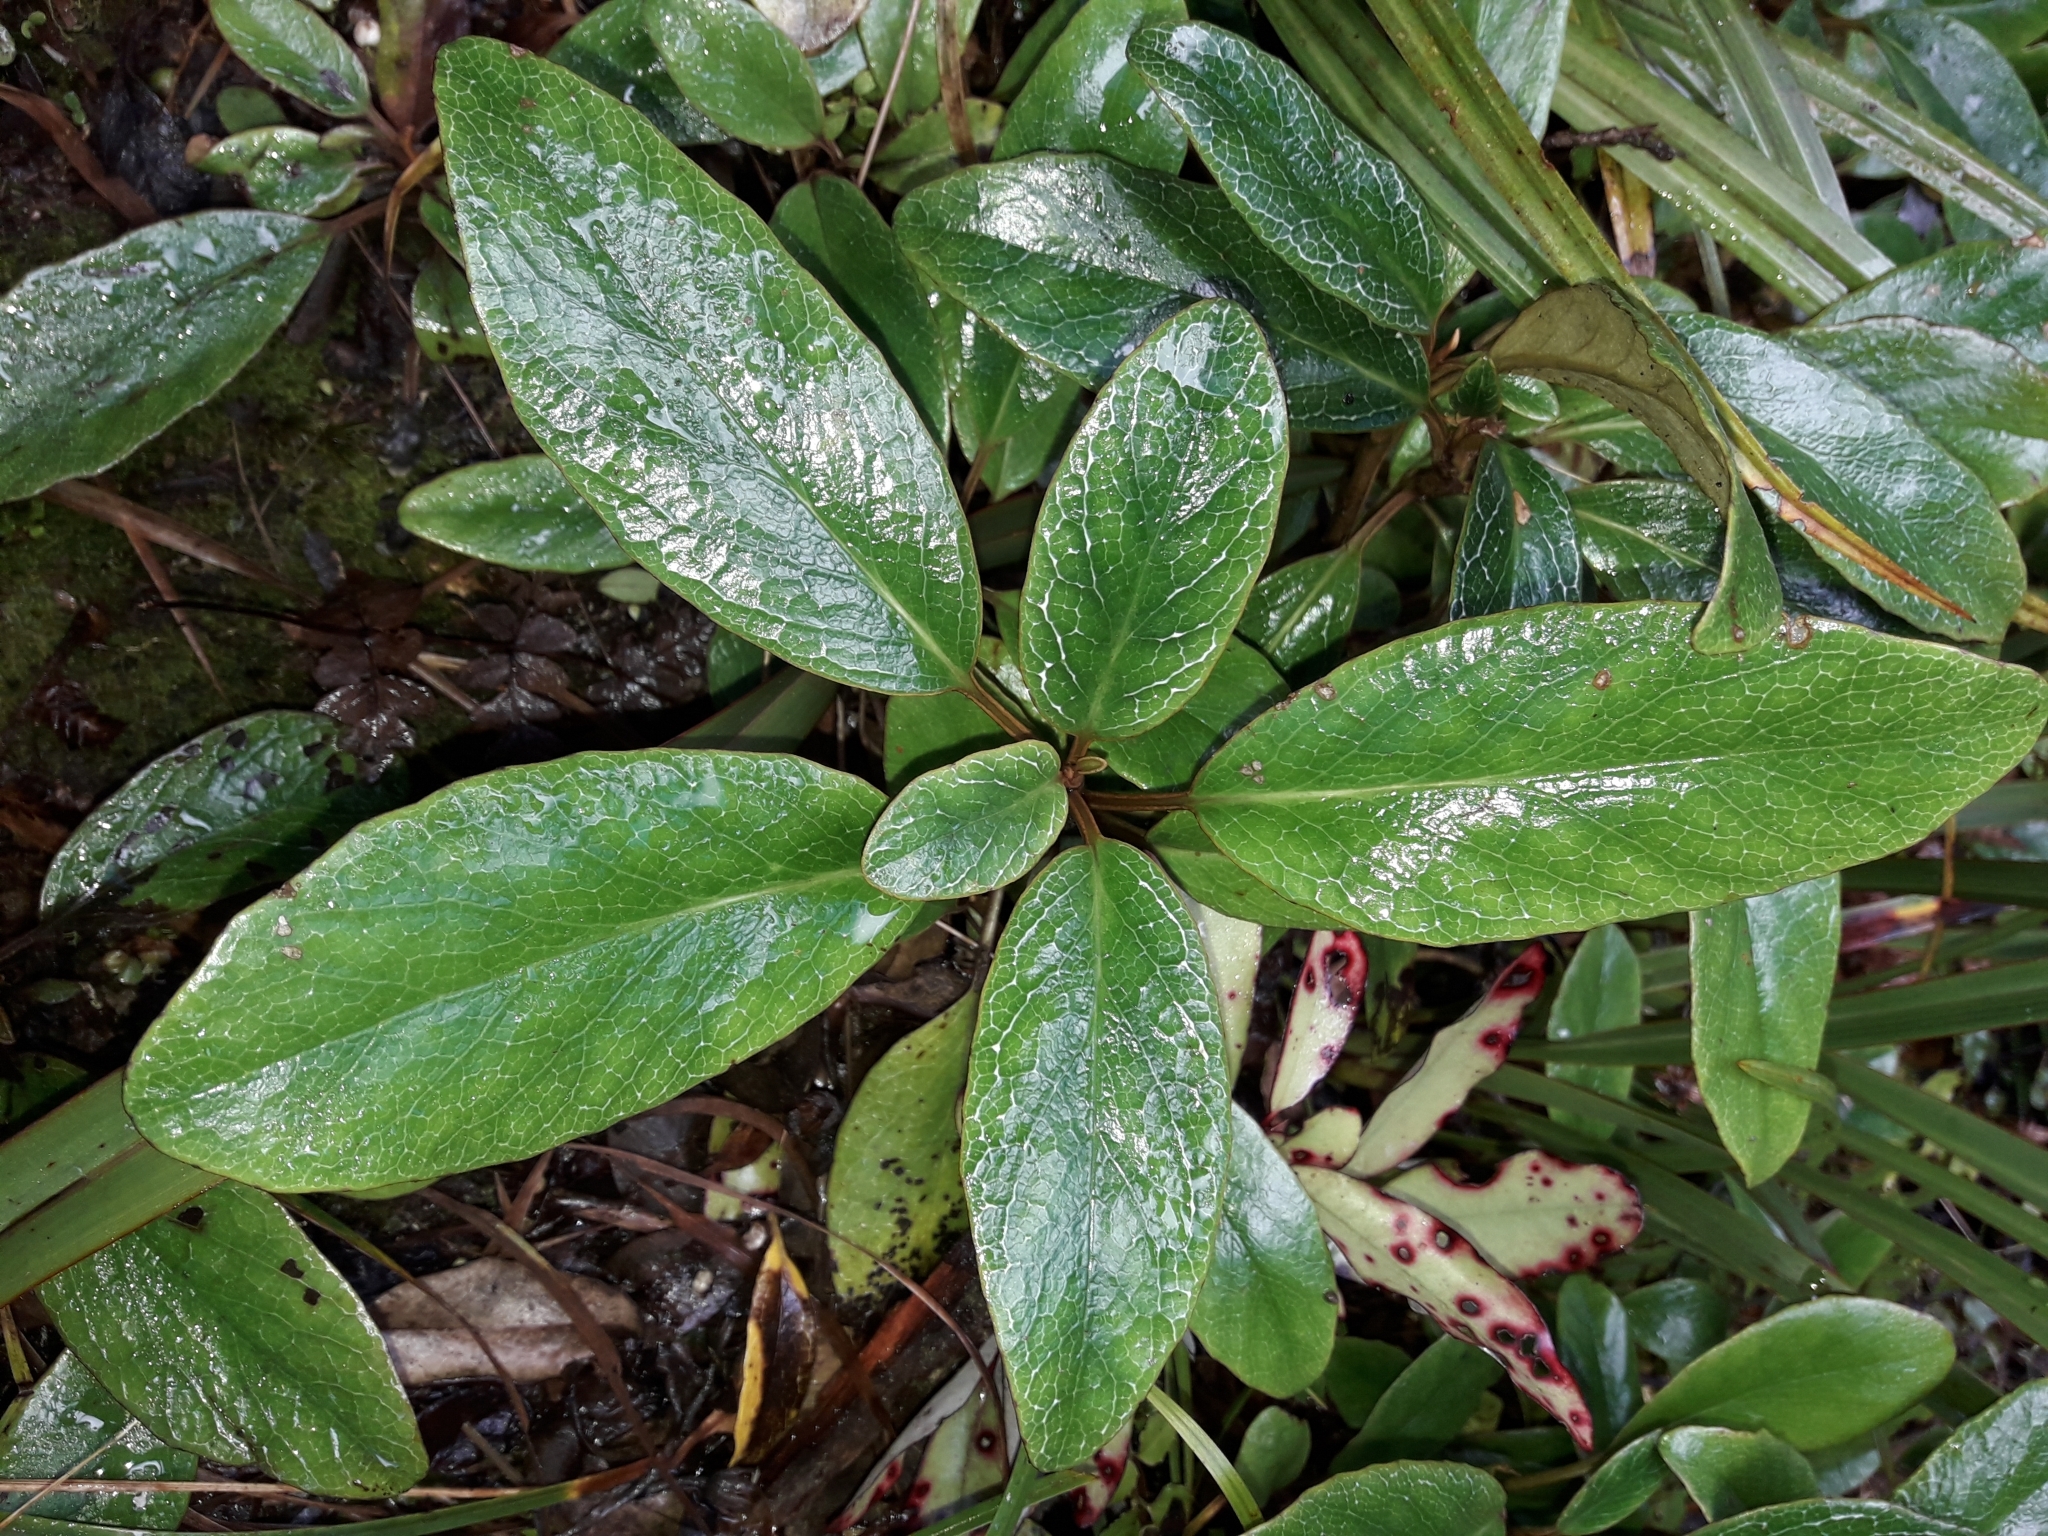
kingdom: Plantae
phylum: Tracheophyta
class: Magnoliopsida
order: Asterales
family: Asteraceae
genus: Brachyglottis
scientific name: Brachyglottis elaeagnifolia
